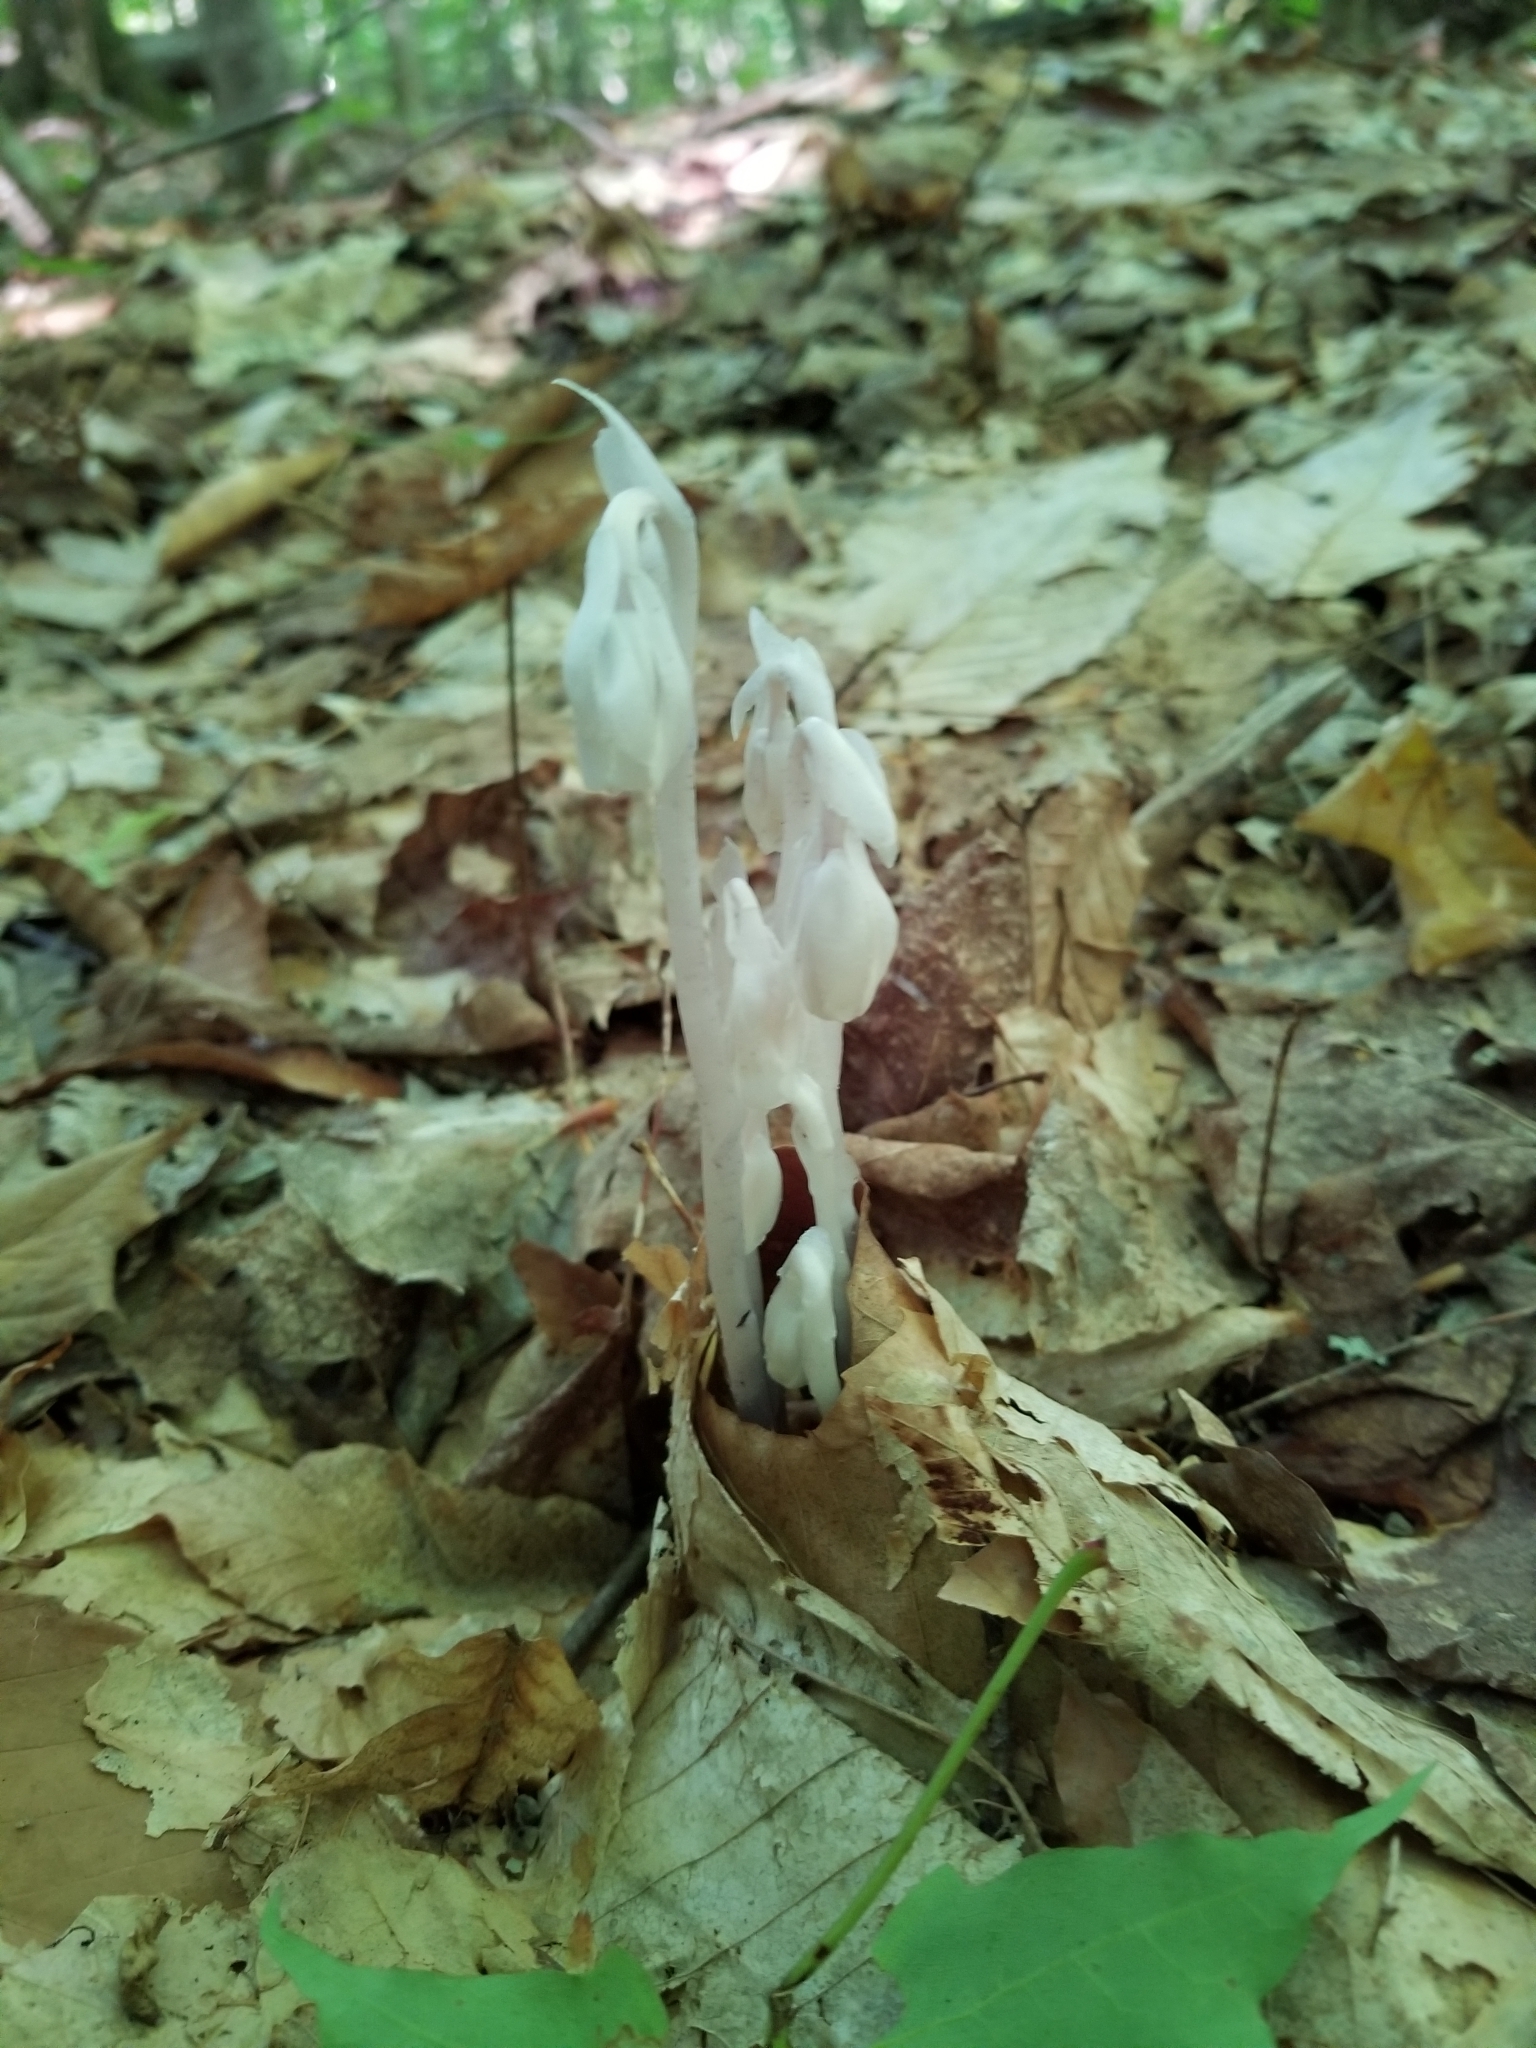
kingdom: Plantae
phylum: Tracheophyta
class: Magnoliopsida
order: Ericales
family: Ericaceae
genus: Monotropa
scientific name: Monotropa uniflora
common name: Convulsion root
